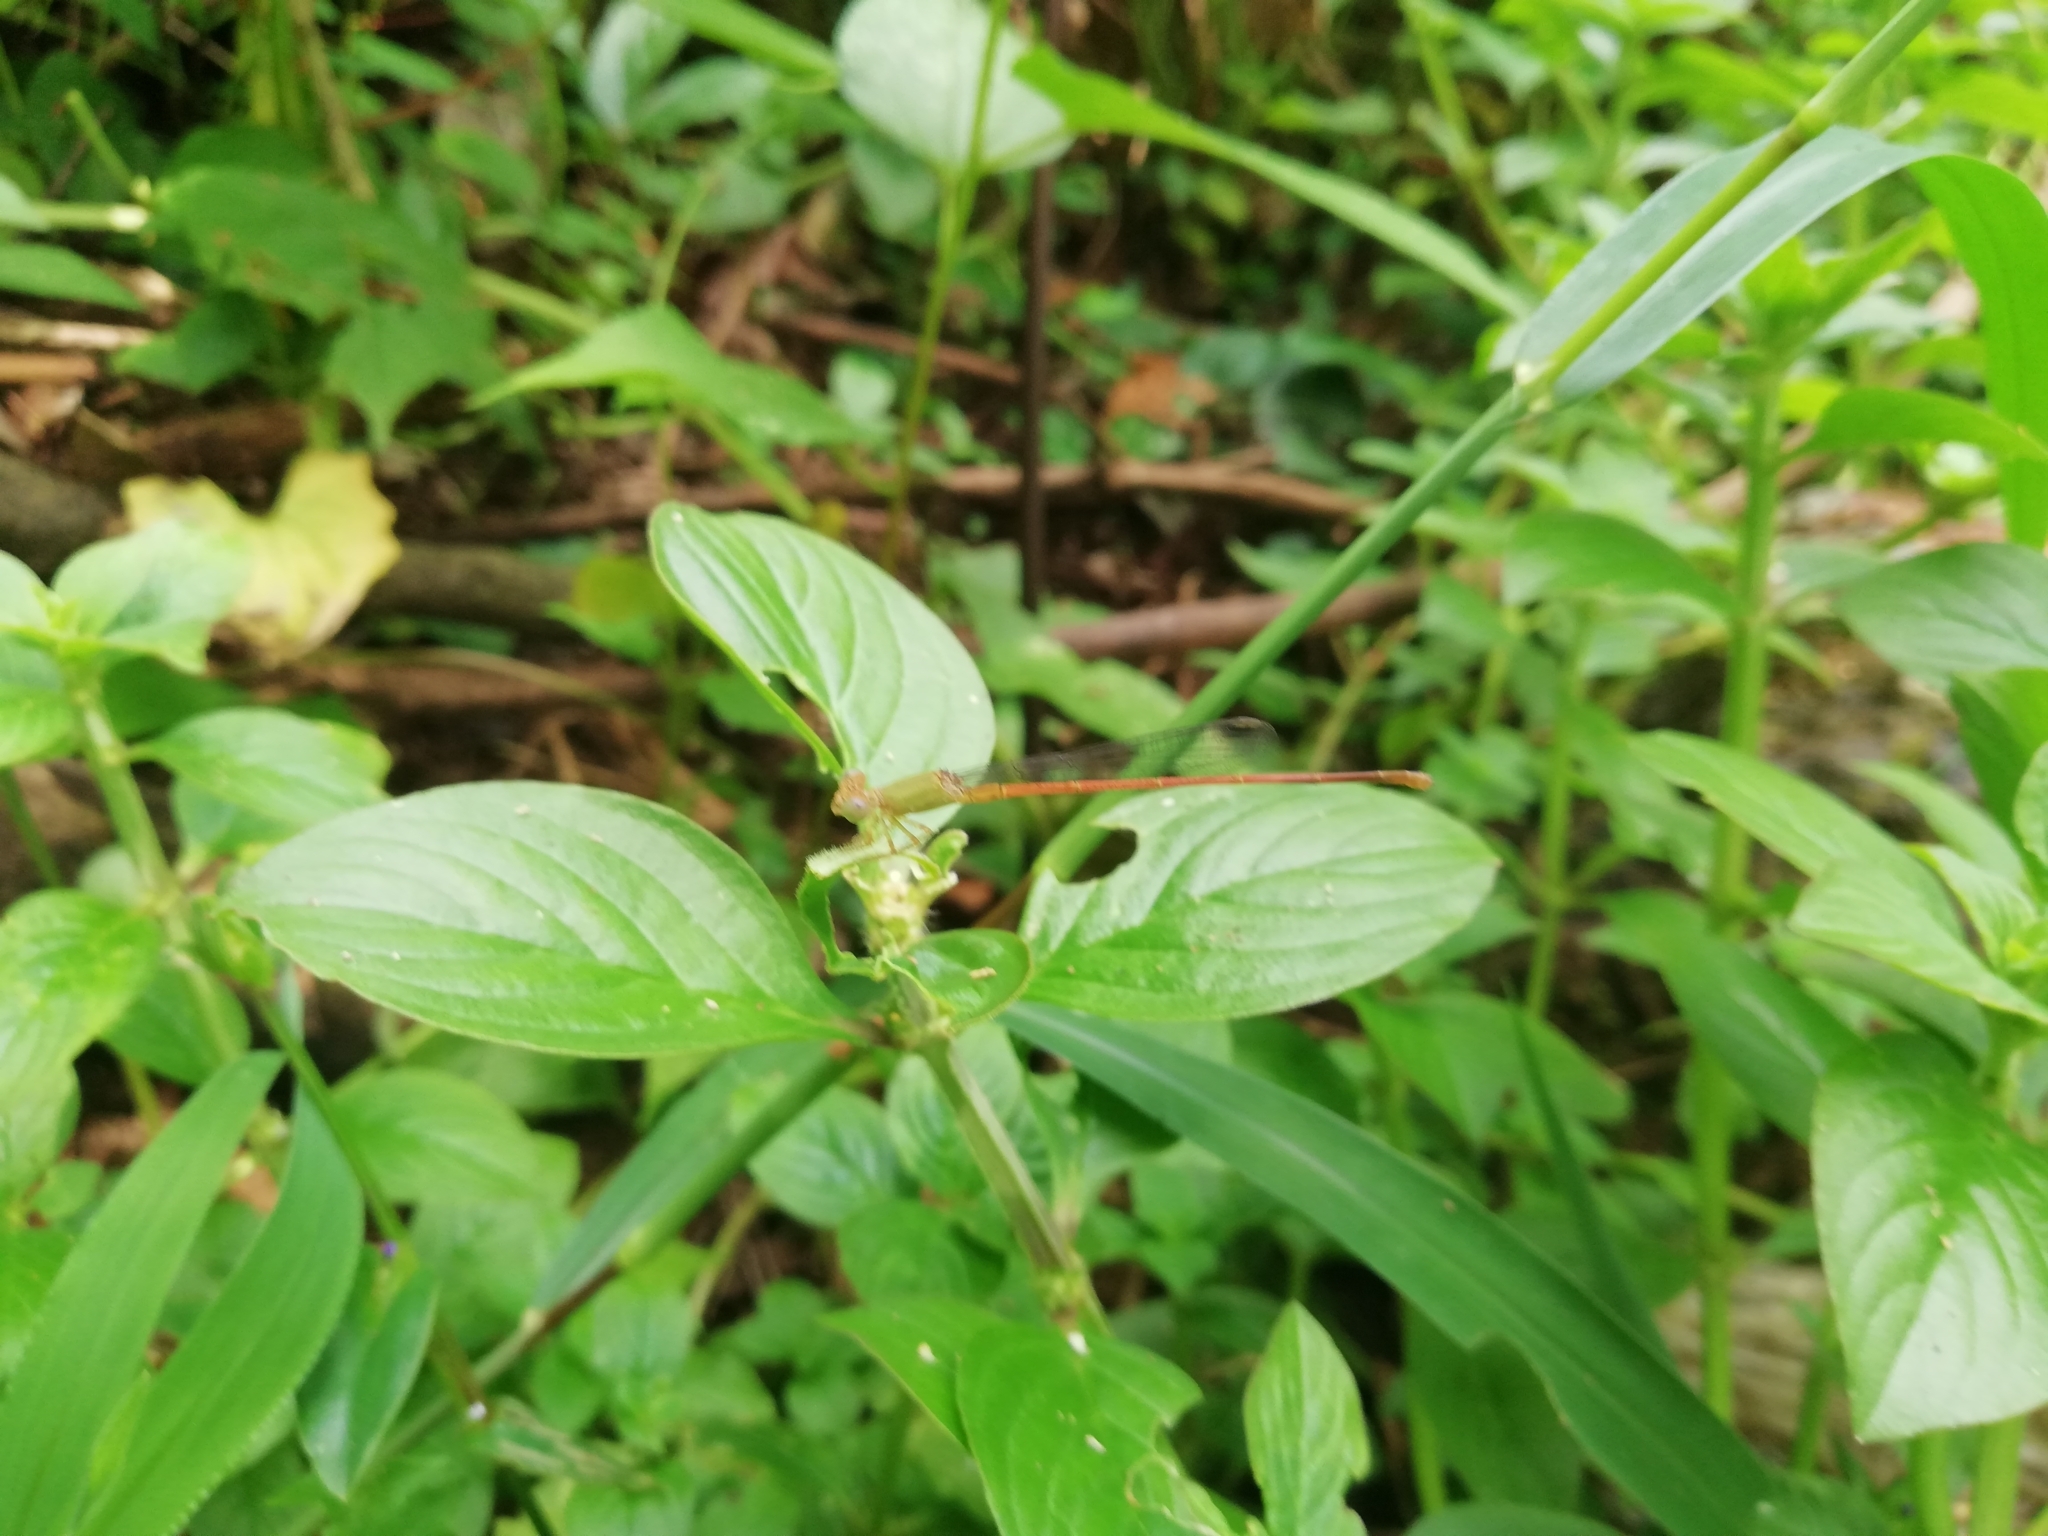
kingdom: Animalia
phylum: Arthropoda
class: Insecta
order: Odonata
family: Coenagrionidae
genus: Ceriagrion
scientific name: Ceriagrion olivaceum
